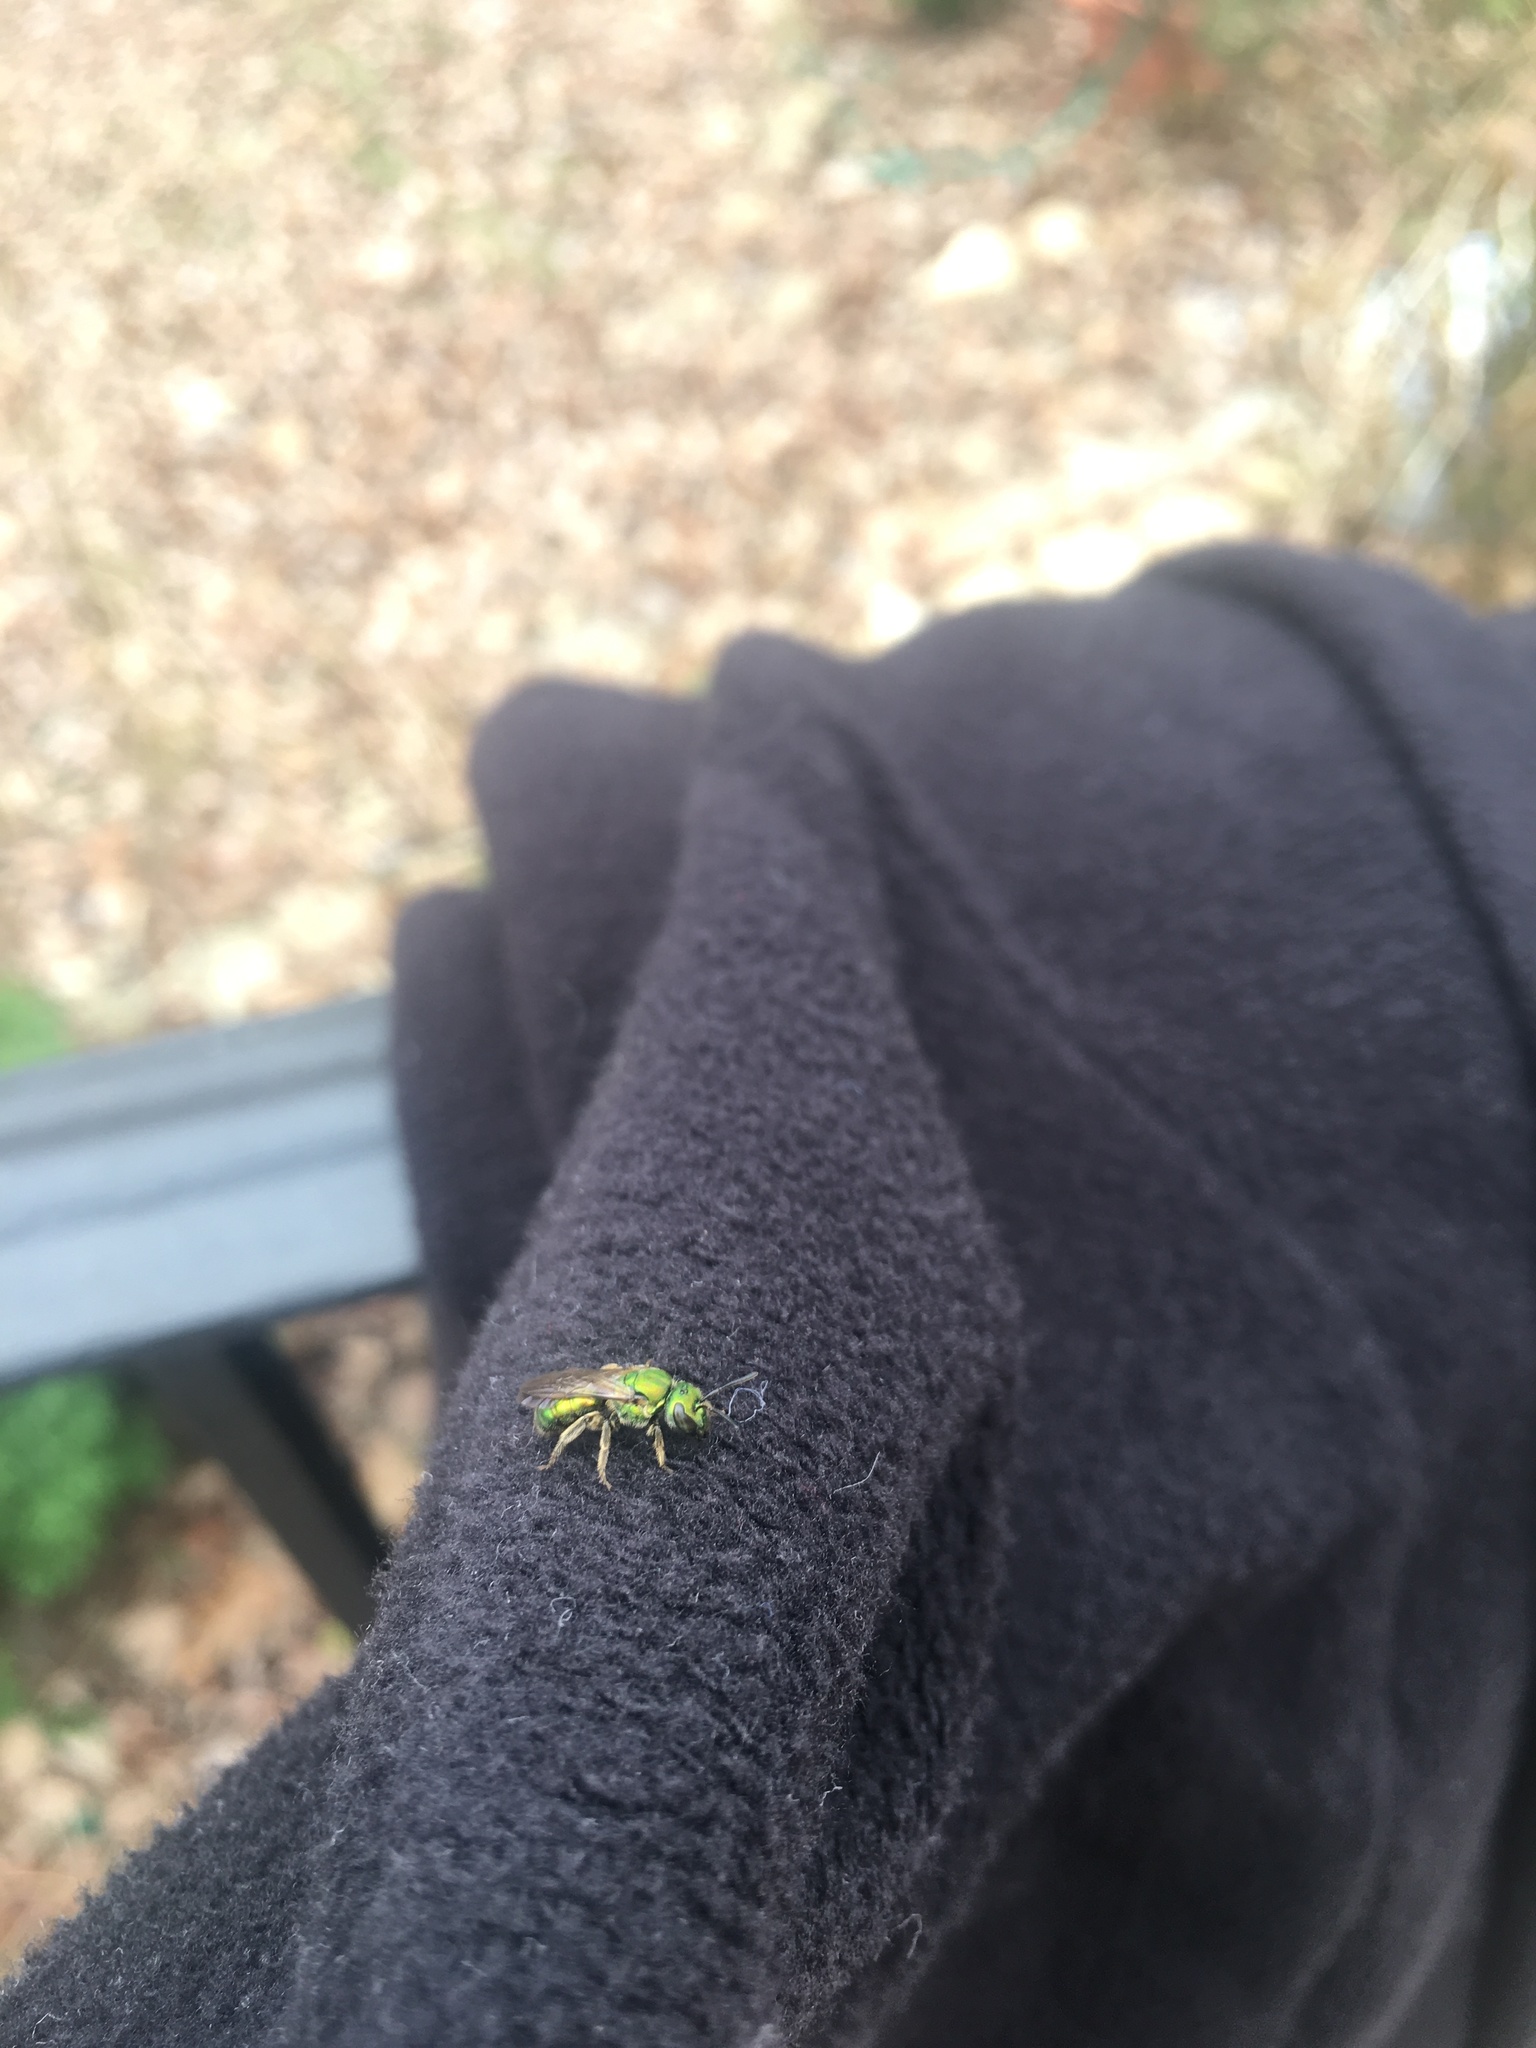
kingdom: Animalia
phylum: Arthropoda
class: Insecta
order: Hymenoptera
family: Halictidae
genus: Augochlora
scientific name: Augochlora pura
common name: Pure green sweat bee
